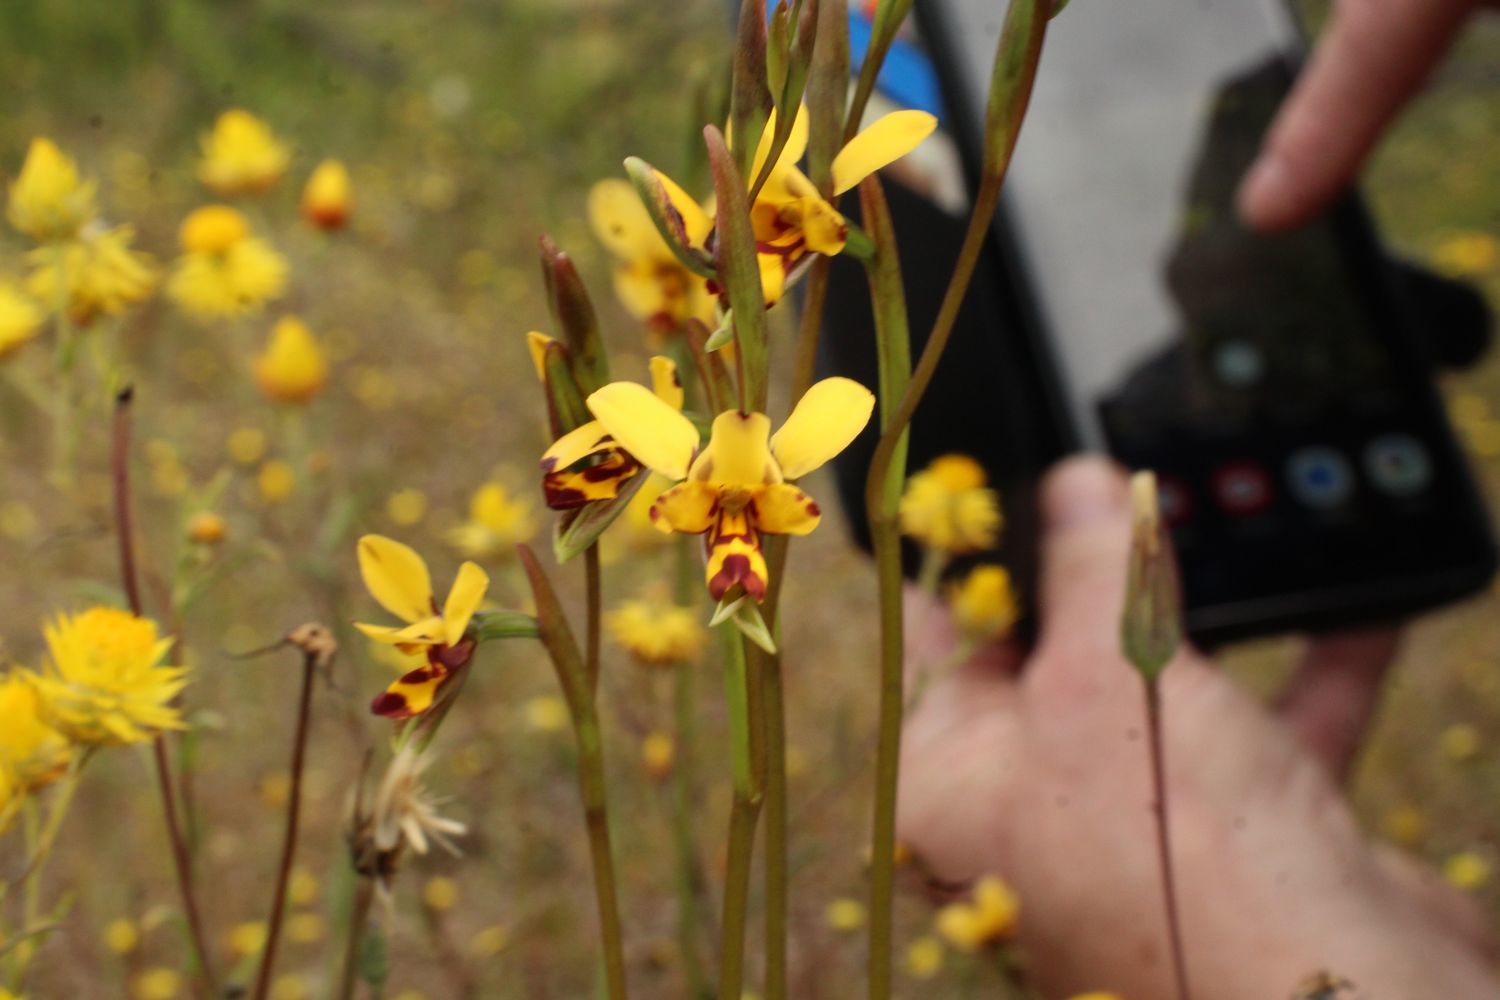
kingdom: Plantae
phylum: Tracheophyta
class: Liliopsida
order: Asparagales
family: Orchidaceae
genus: Diuris
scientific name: Diuris picta
